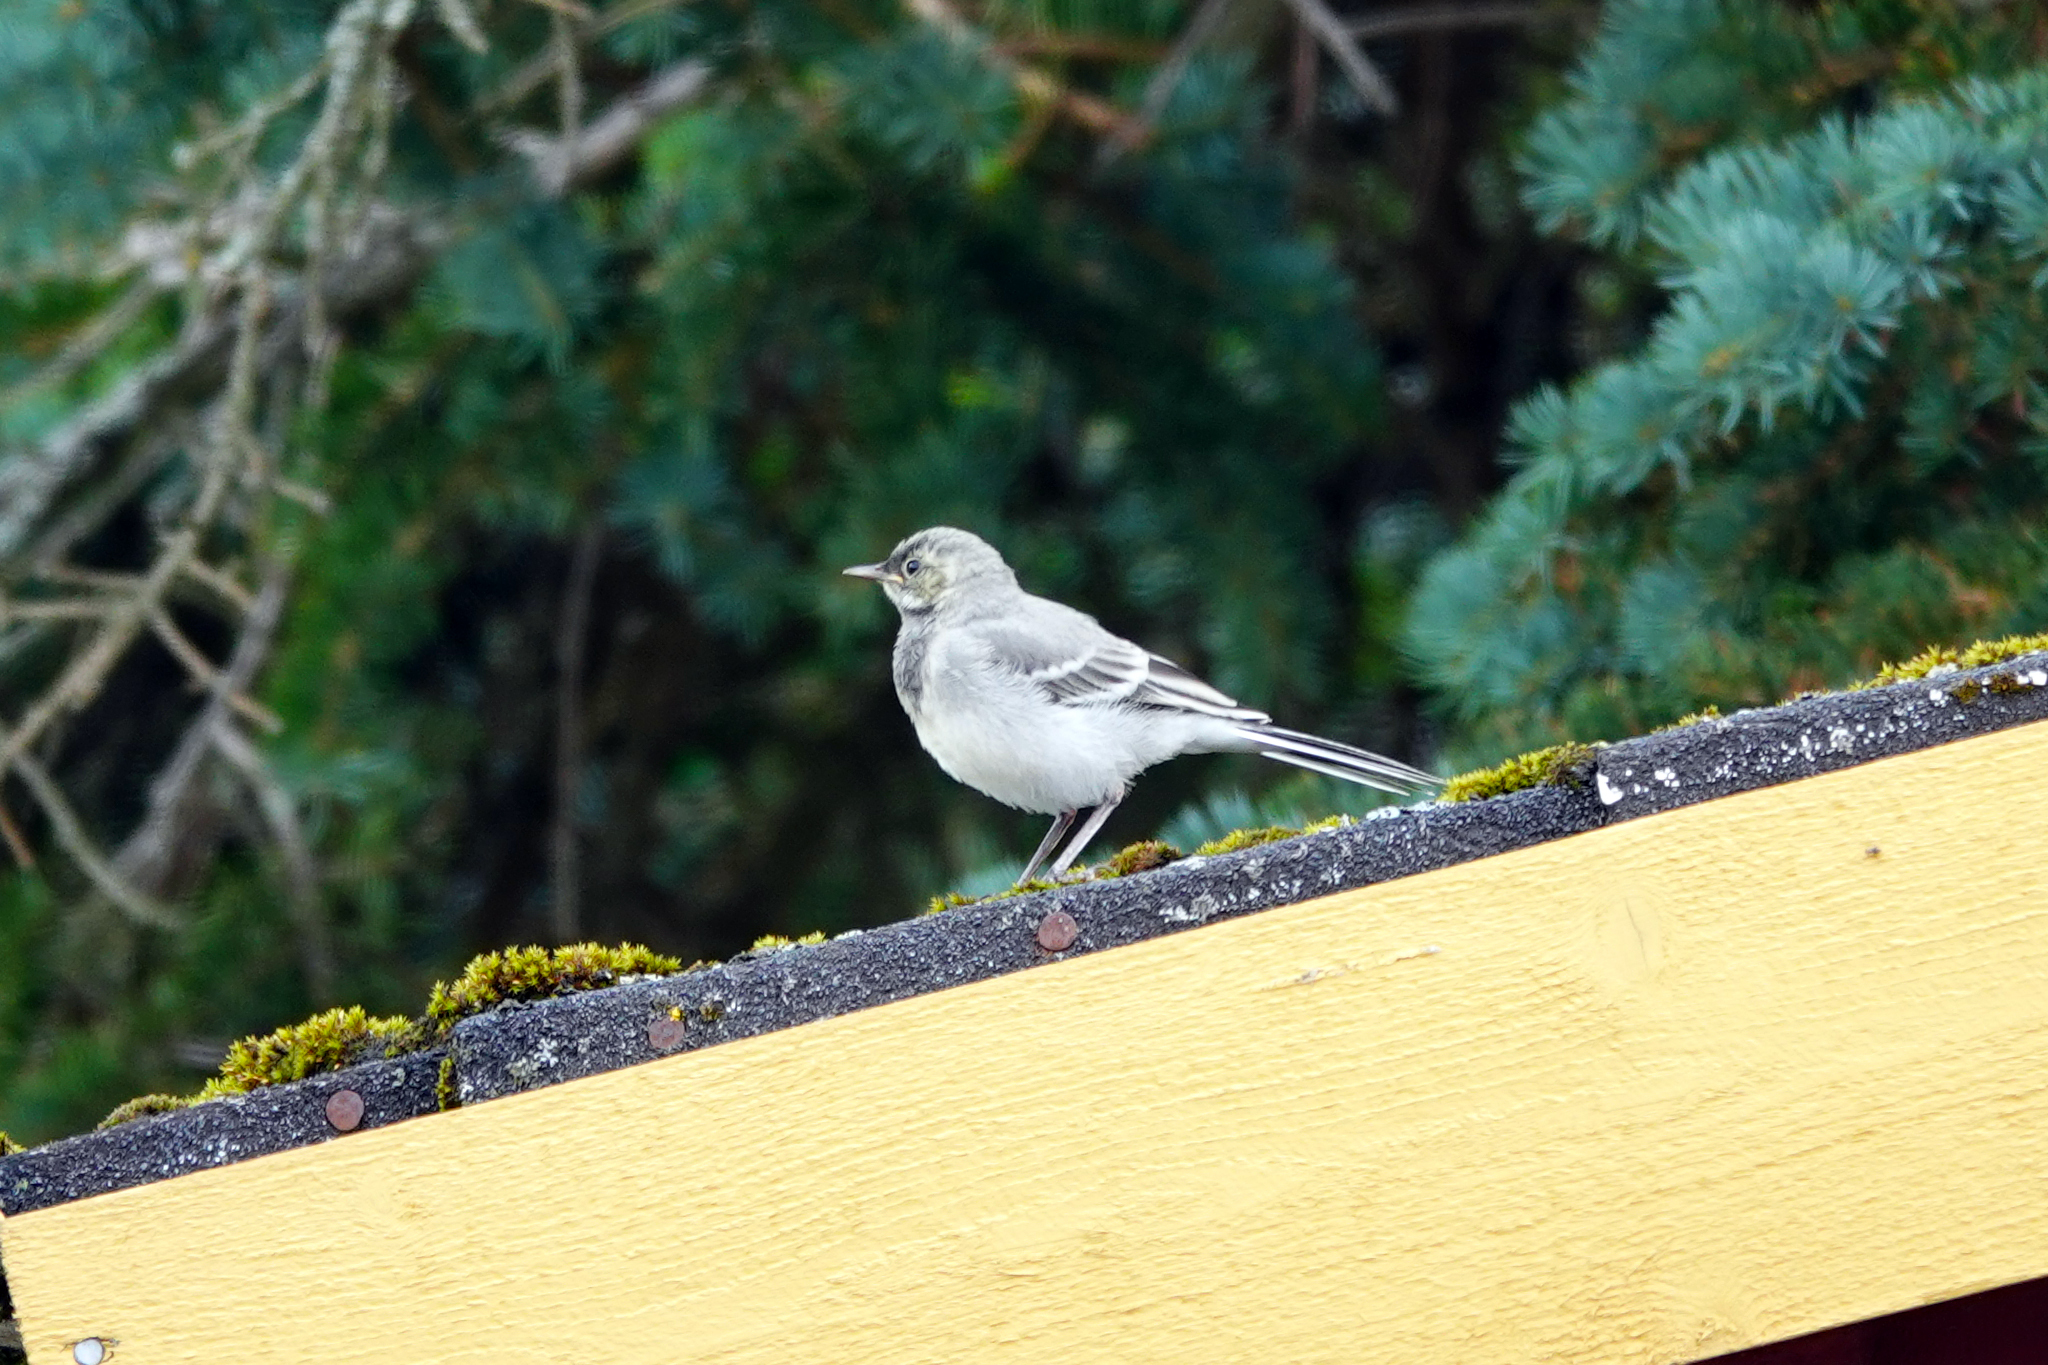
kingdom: Animalia
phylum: Chordata
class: Aves
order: Passeriformes
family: Motacillidae
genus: Motacilla
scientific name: Motacilla alba
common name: White wagtail
